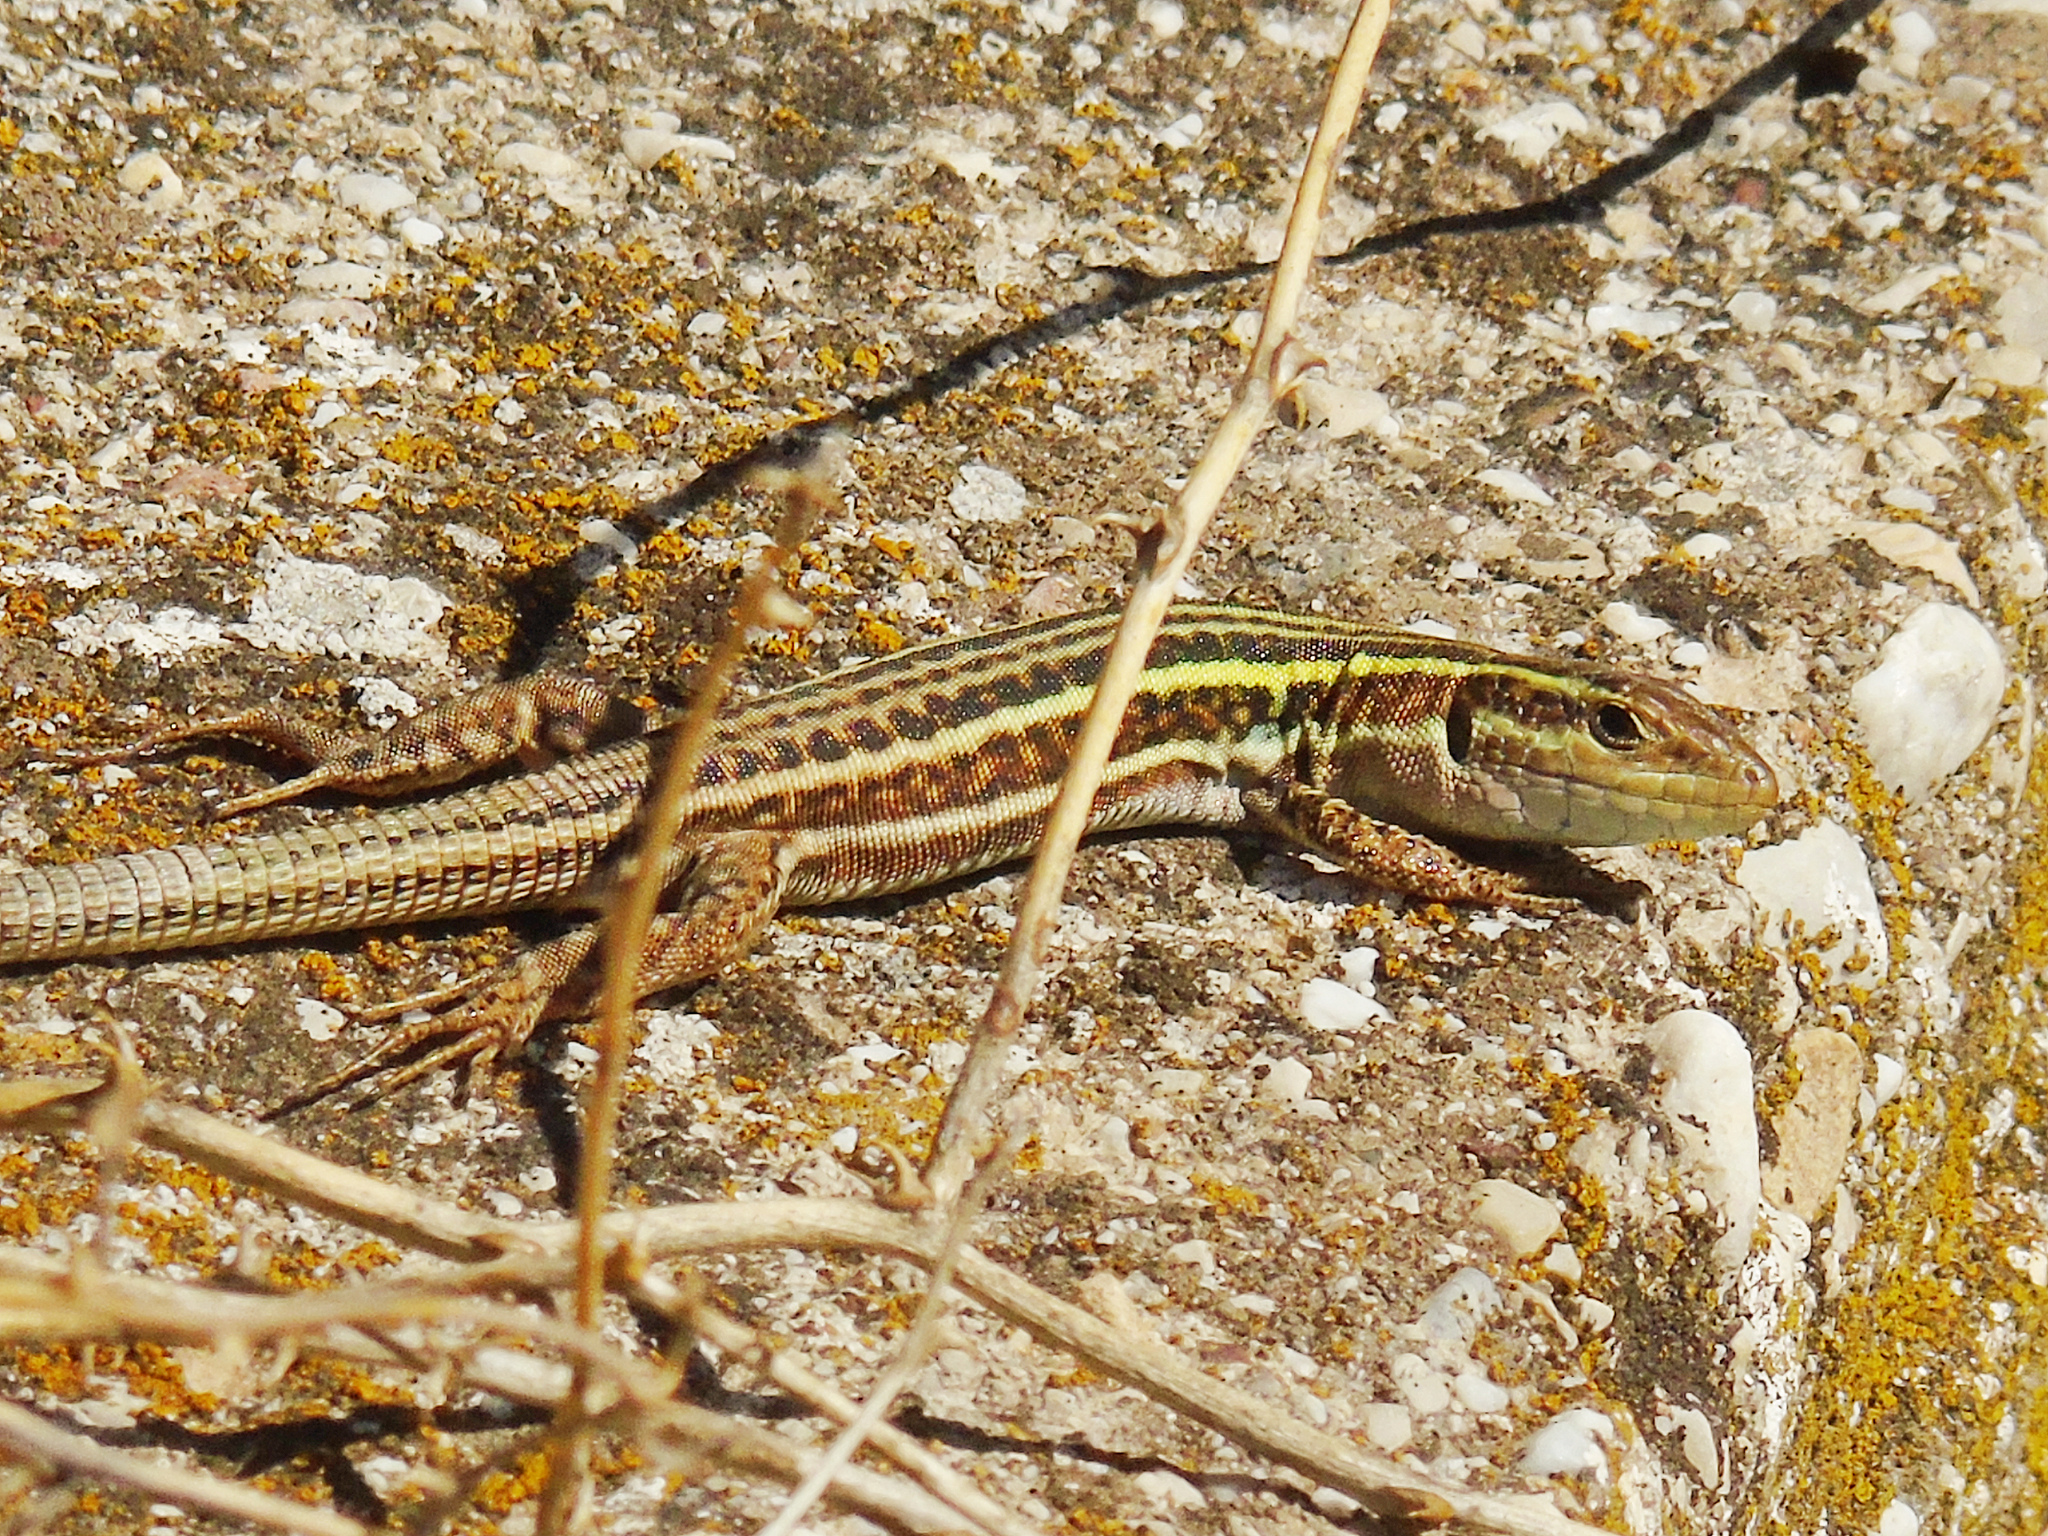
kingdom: Animalia
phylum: Chordata
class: Squamata
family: Lacertidae
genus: Podarcis
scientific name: Podarcis peloponnesiacus
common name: Peloponnese wall lizard
